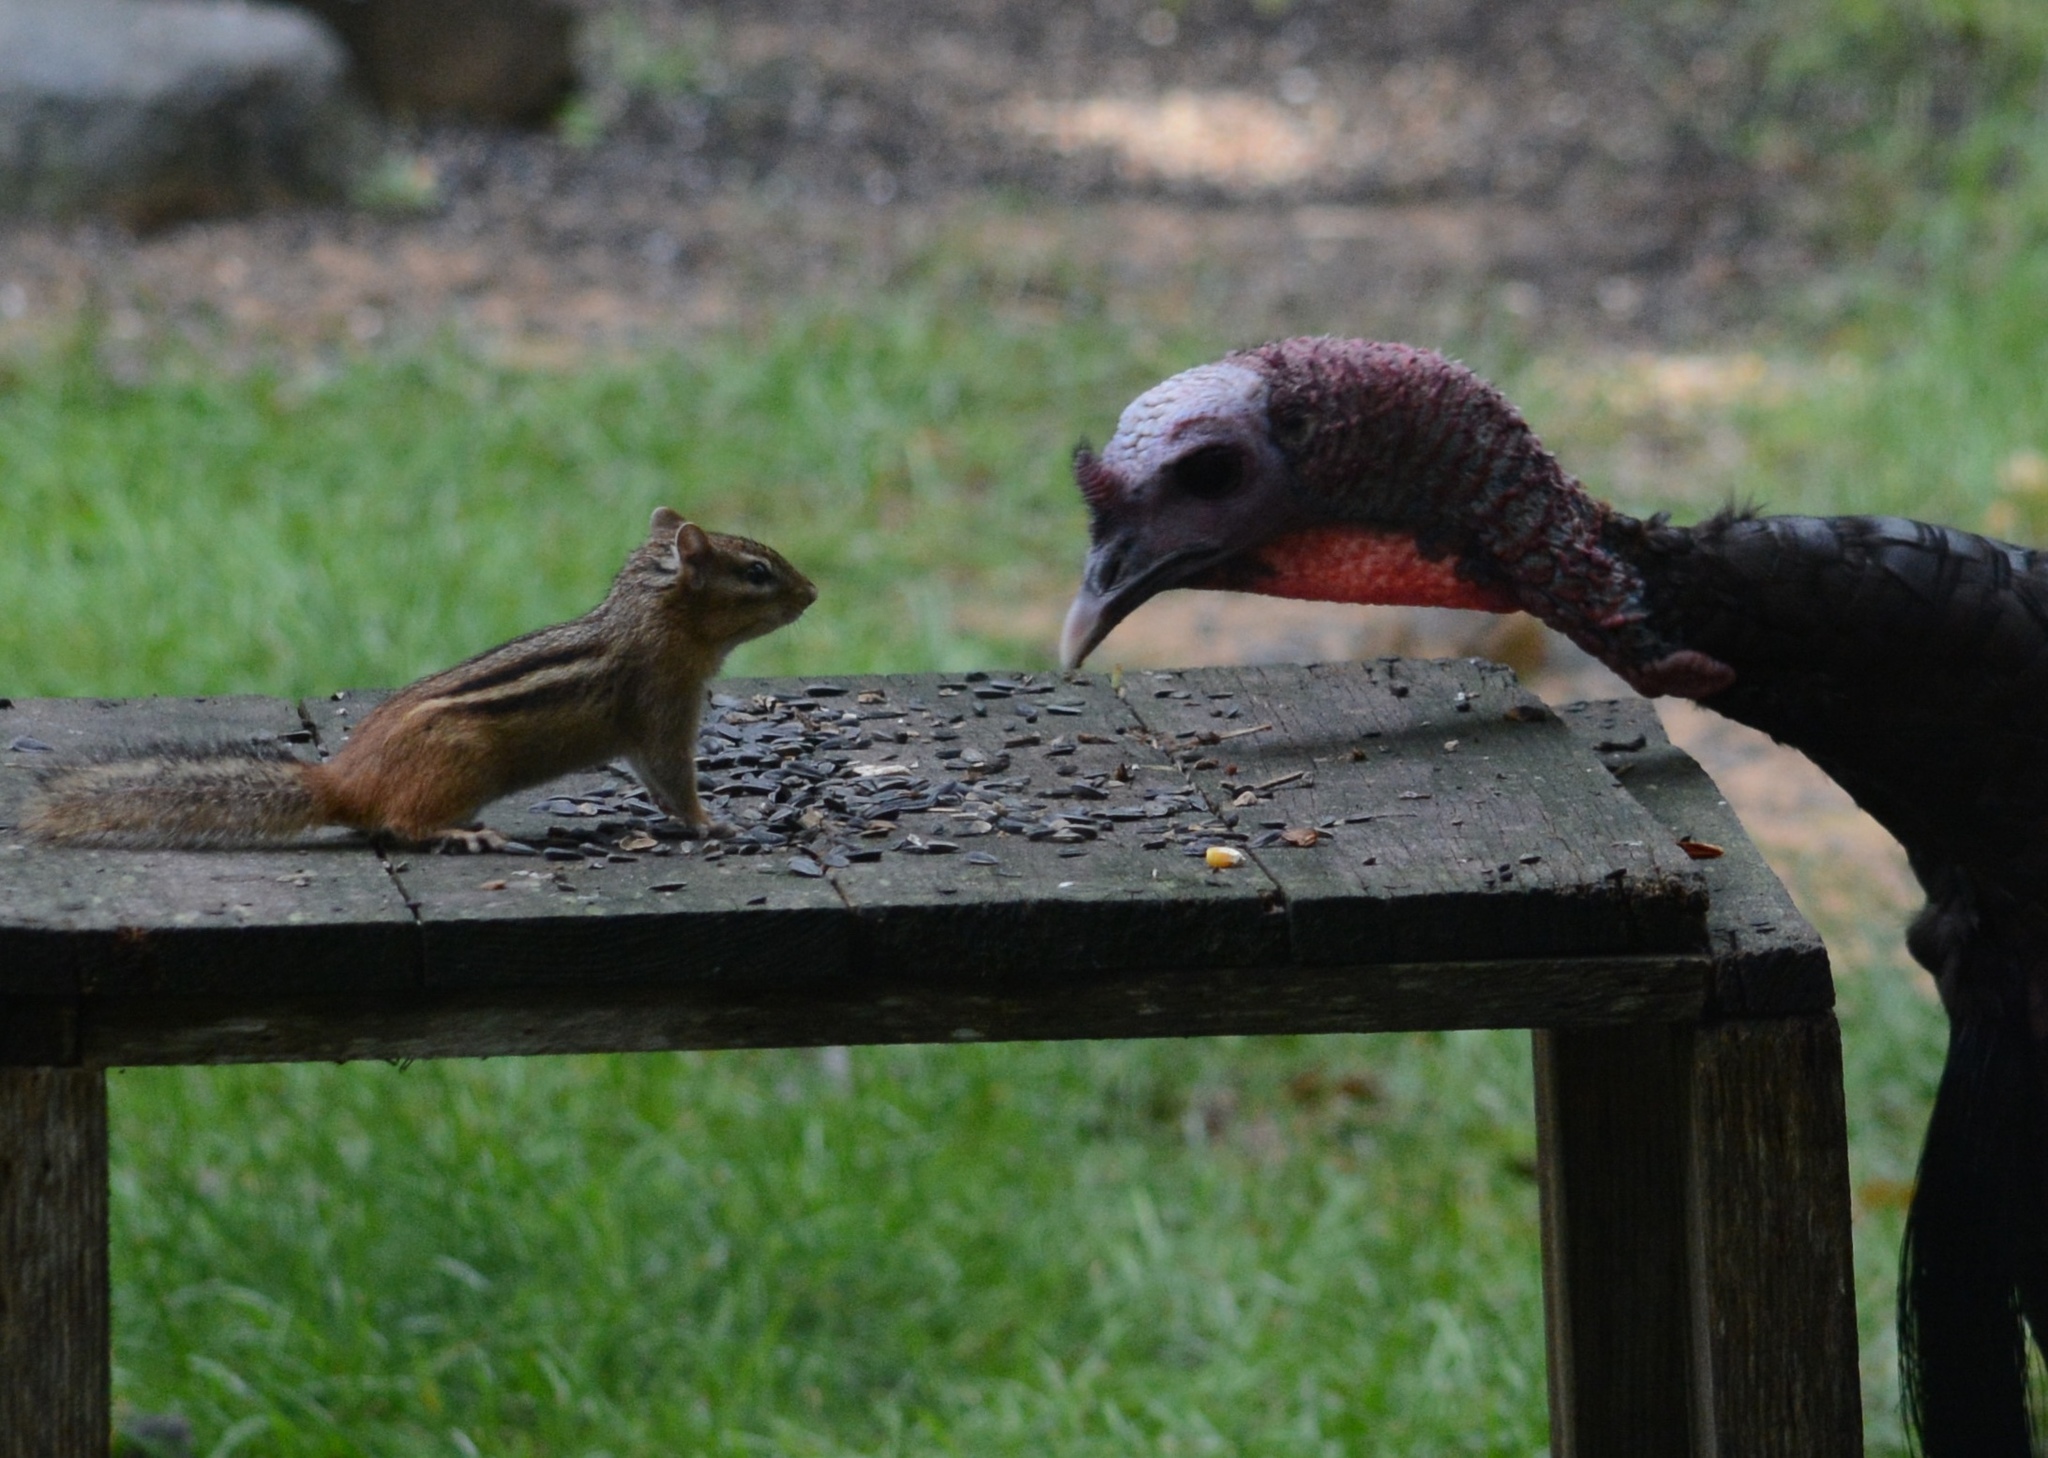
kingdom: Animalia
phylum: Chordata
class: Mammalia
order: Rodentia
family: Sciuridae
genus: Tamias
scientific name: Tamias striatus
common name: Eastern chipmunk
